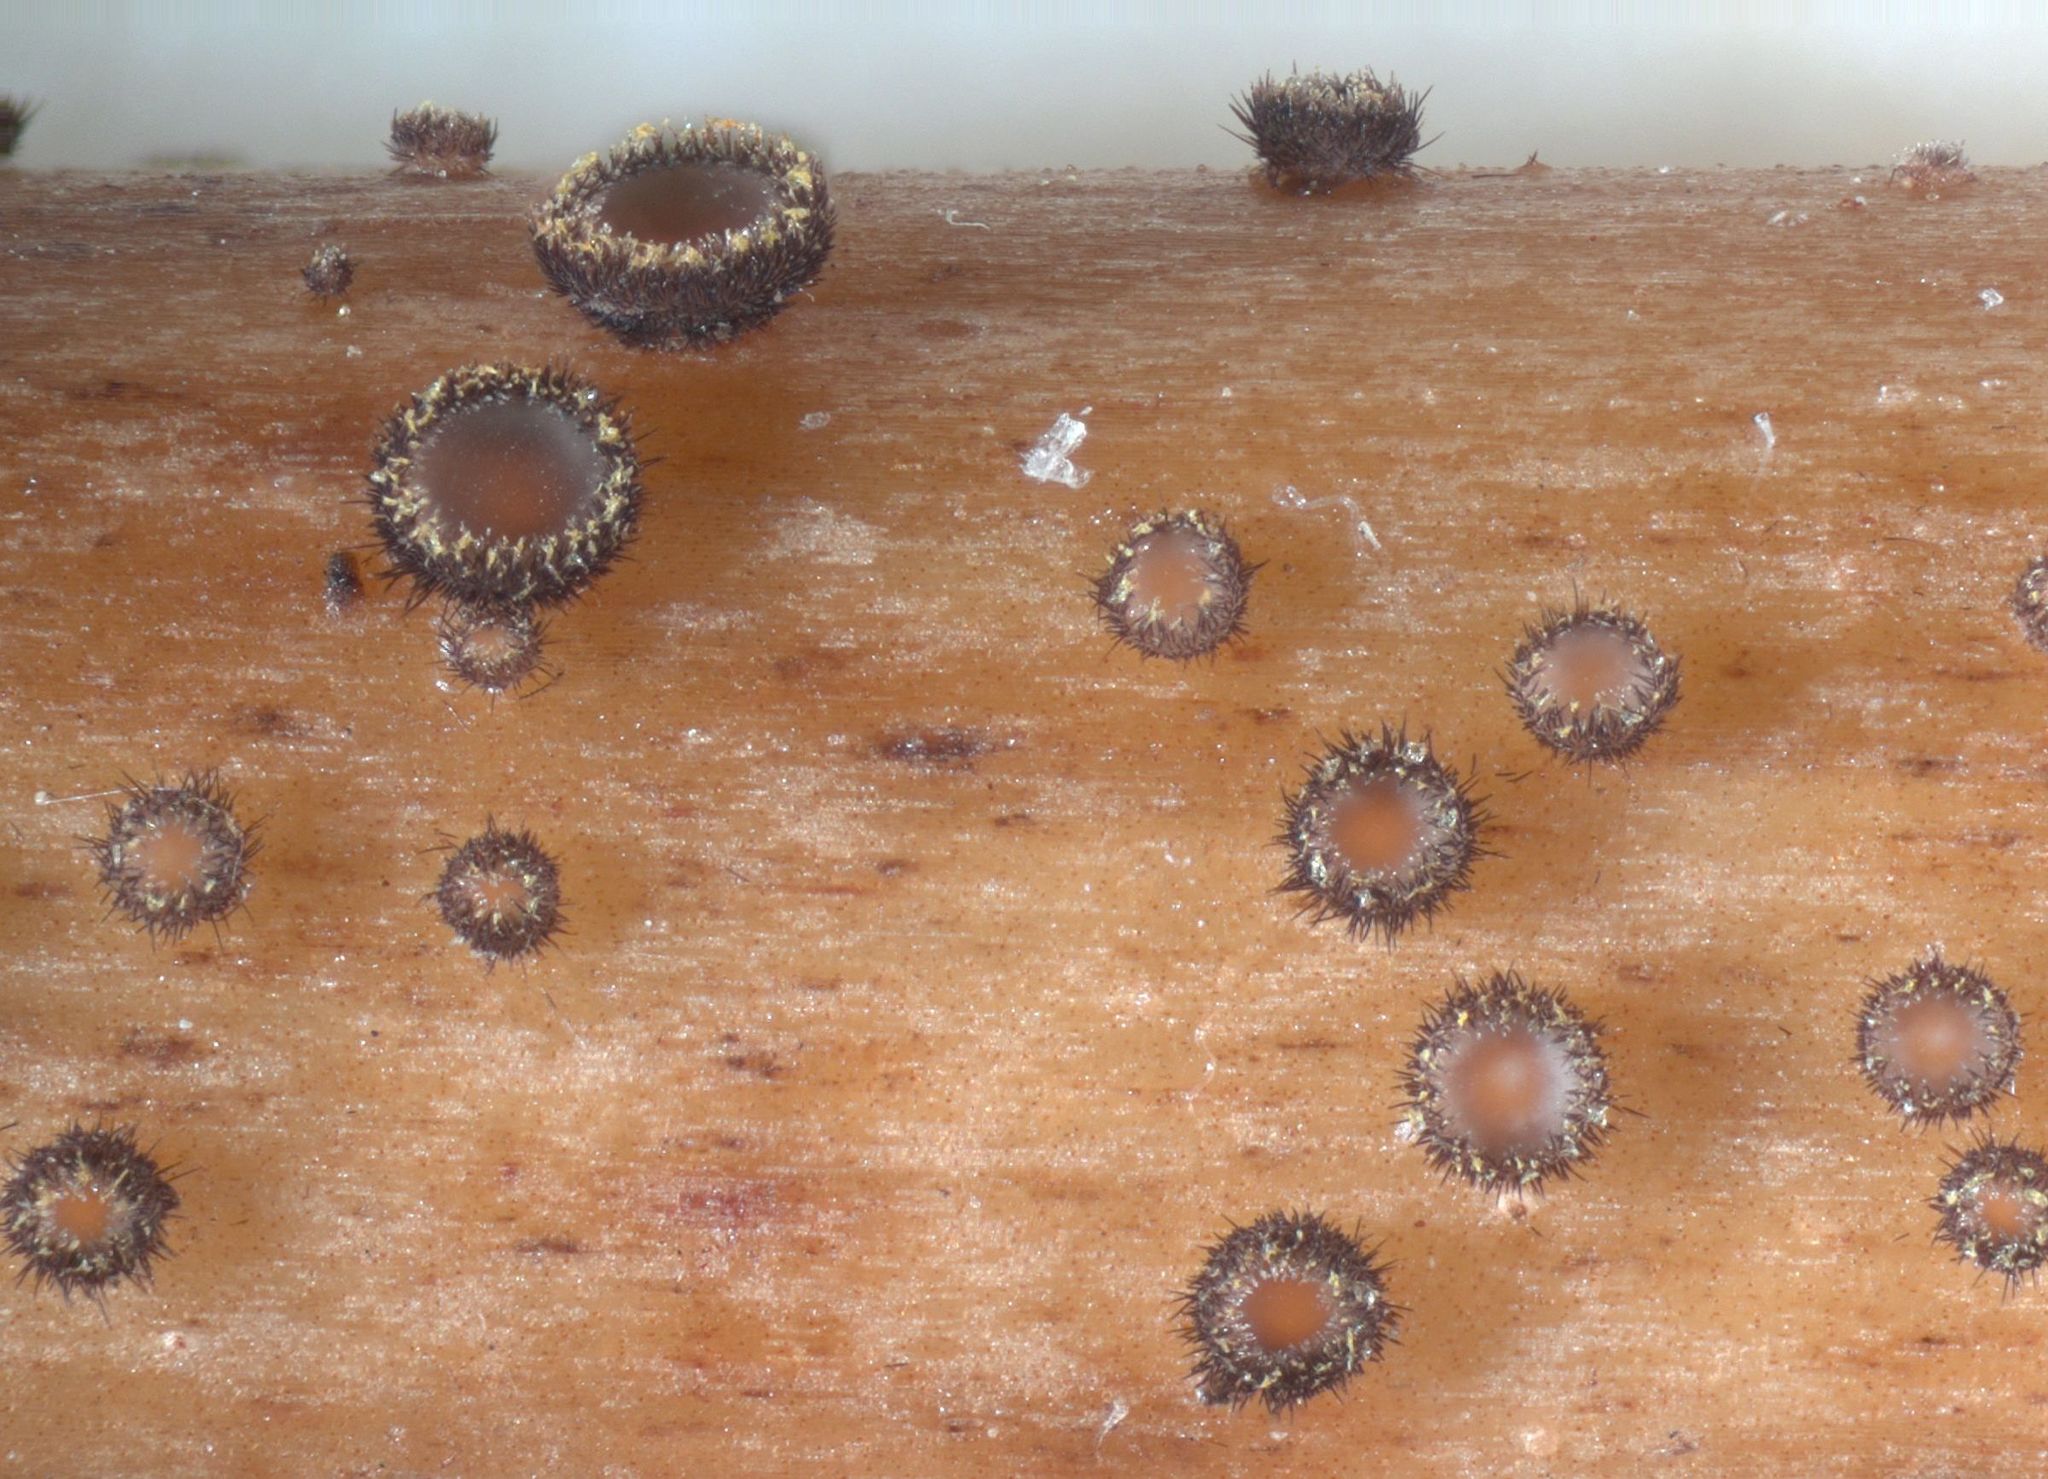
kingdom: Fungi
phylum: Ascomycota
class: Leotiomycetes
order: Helotiales
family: Solenopeziaceae
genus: Lasiobelonium
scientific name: Lasiobelonium nidulus
